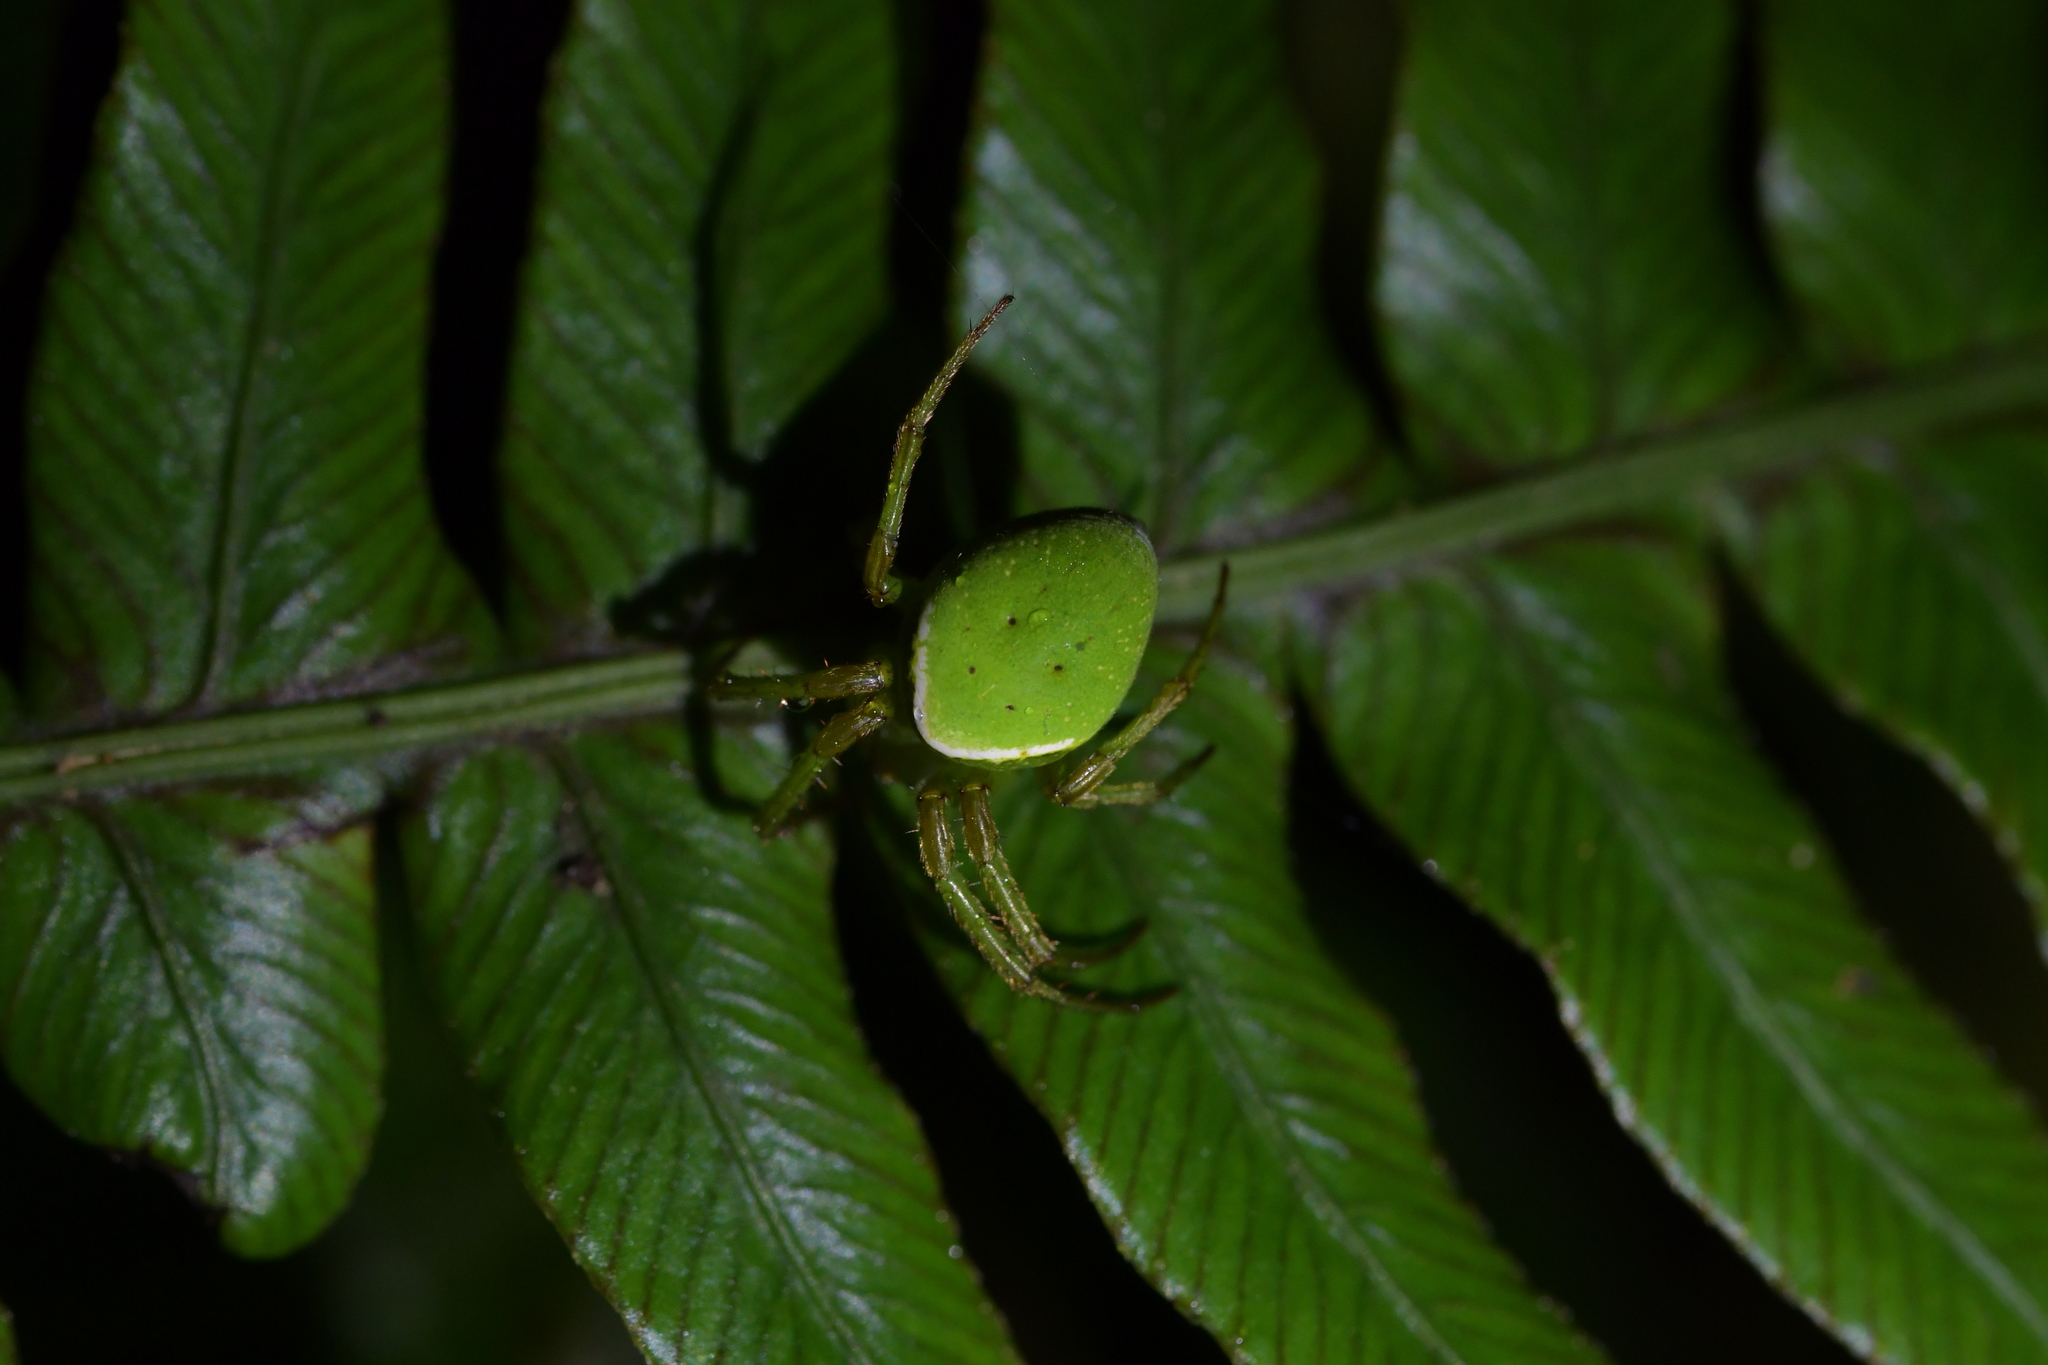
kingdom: Animalia
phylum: Arthropoda
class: Arachnida
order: Araneae
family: Araneidae
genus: Colaranea
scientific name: Colaranea viriditas
